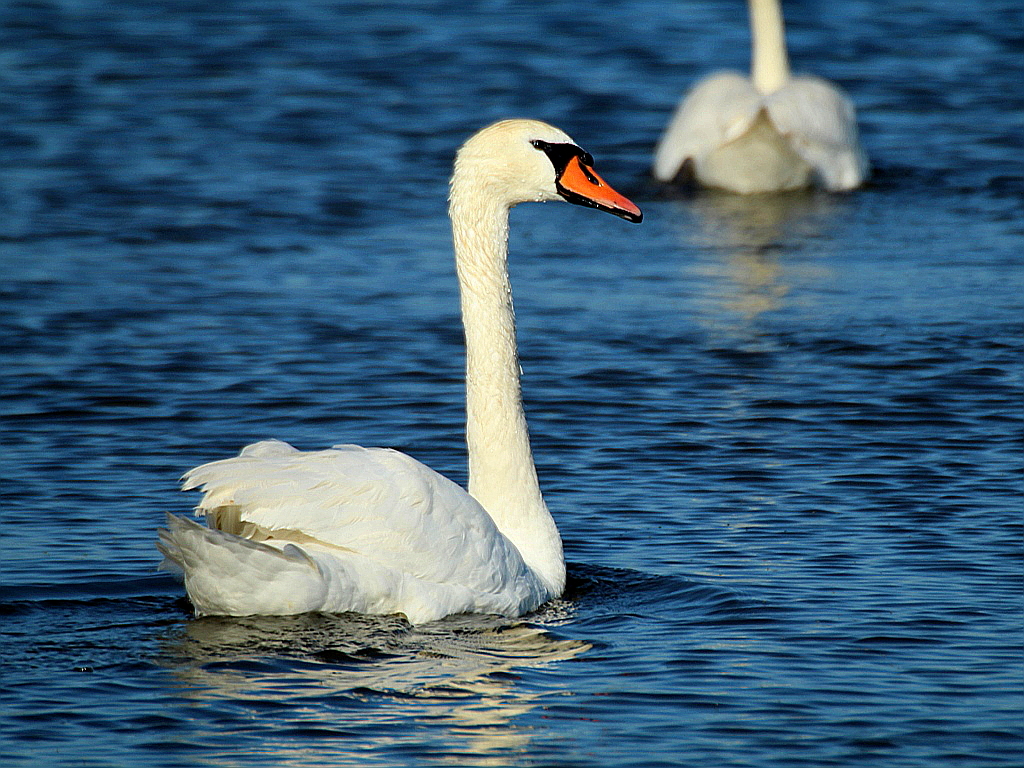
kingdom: Animalia
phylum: Chordata
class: Aves
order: Anseriformes
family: Anatidae
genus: Cygnus
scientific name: Cygnus olor
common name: Mute swan
